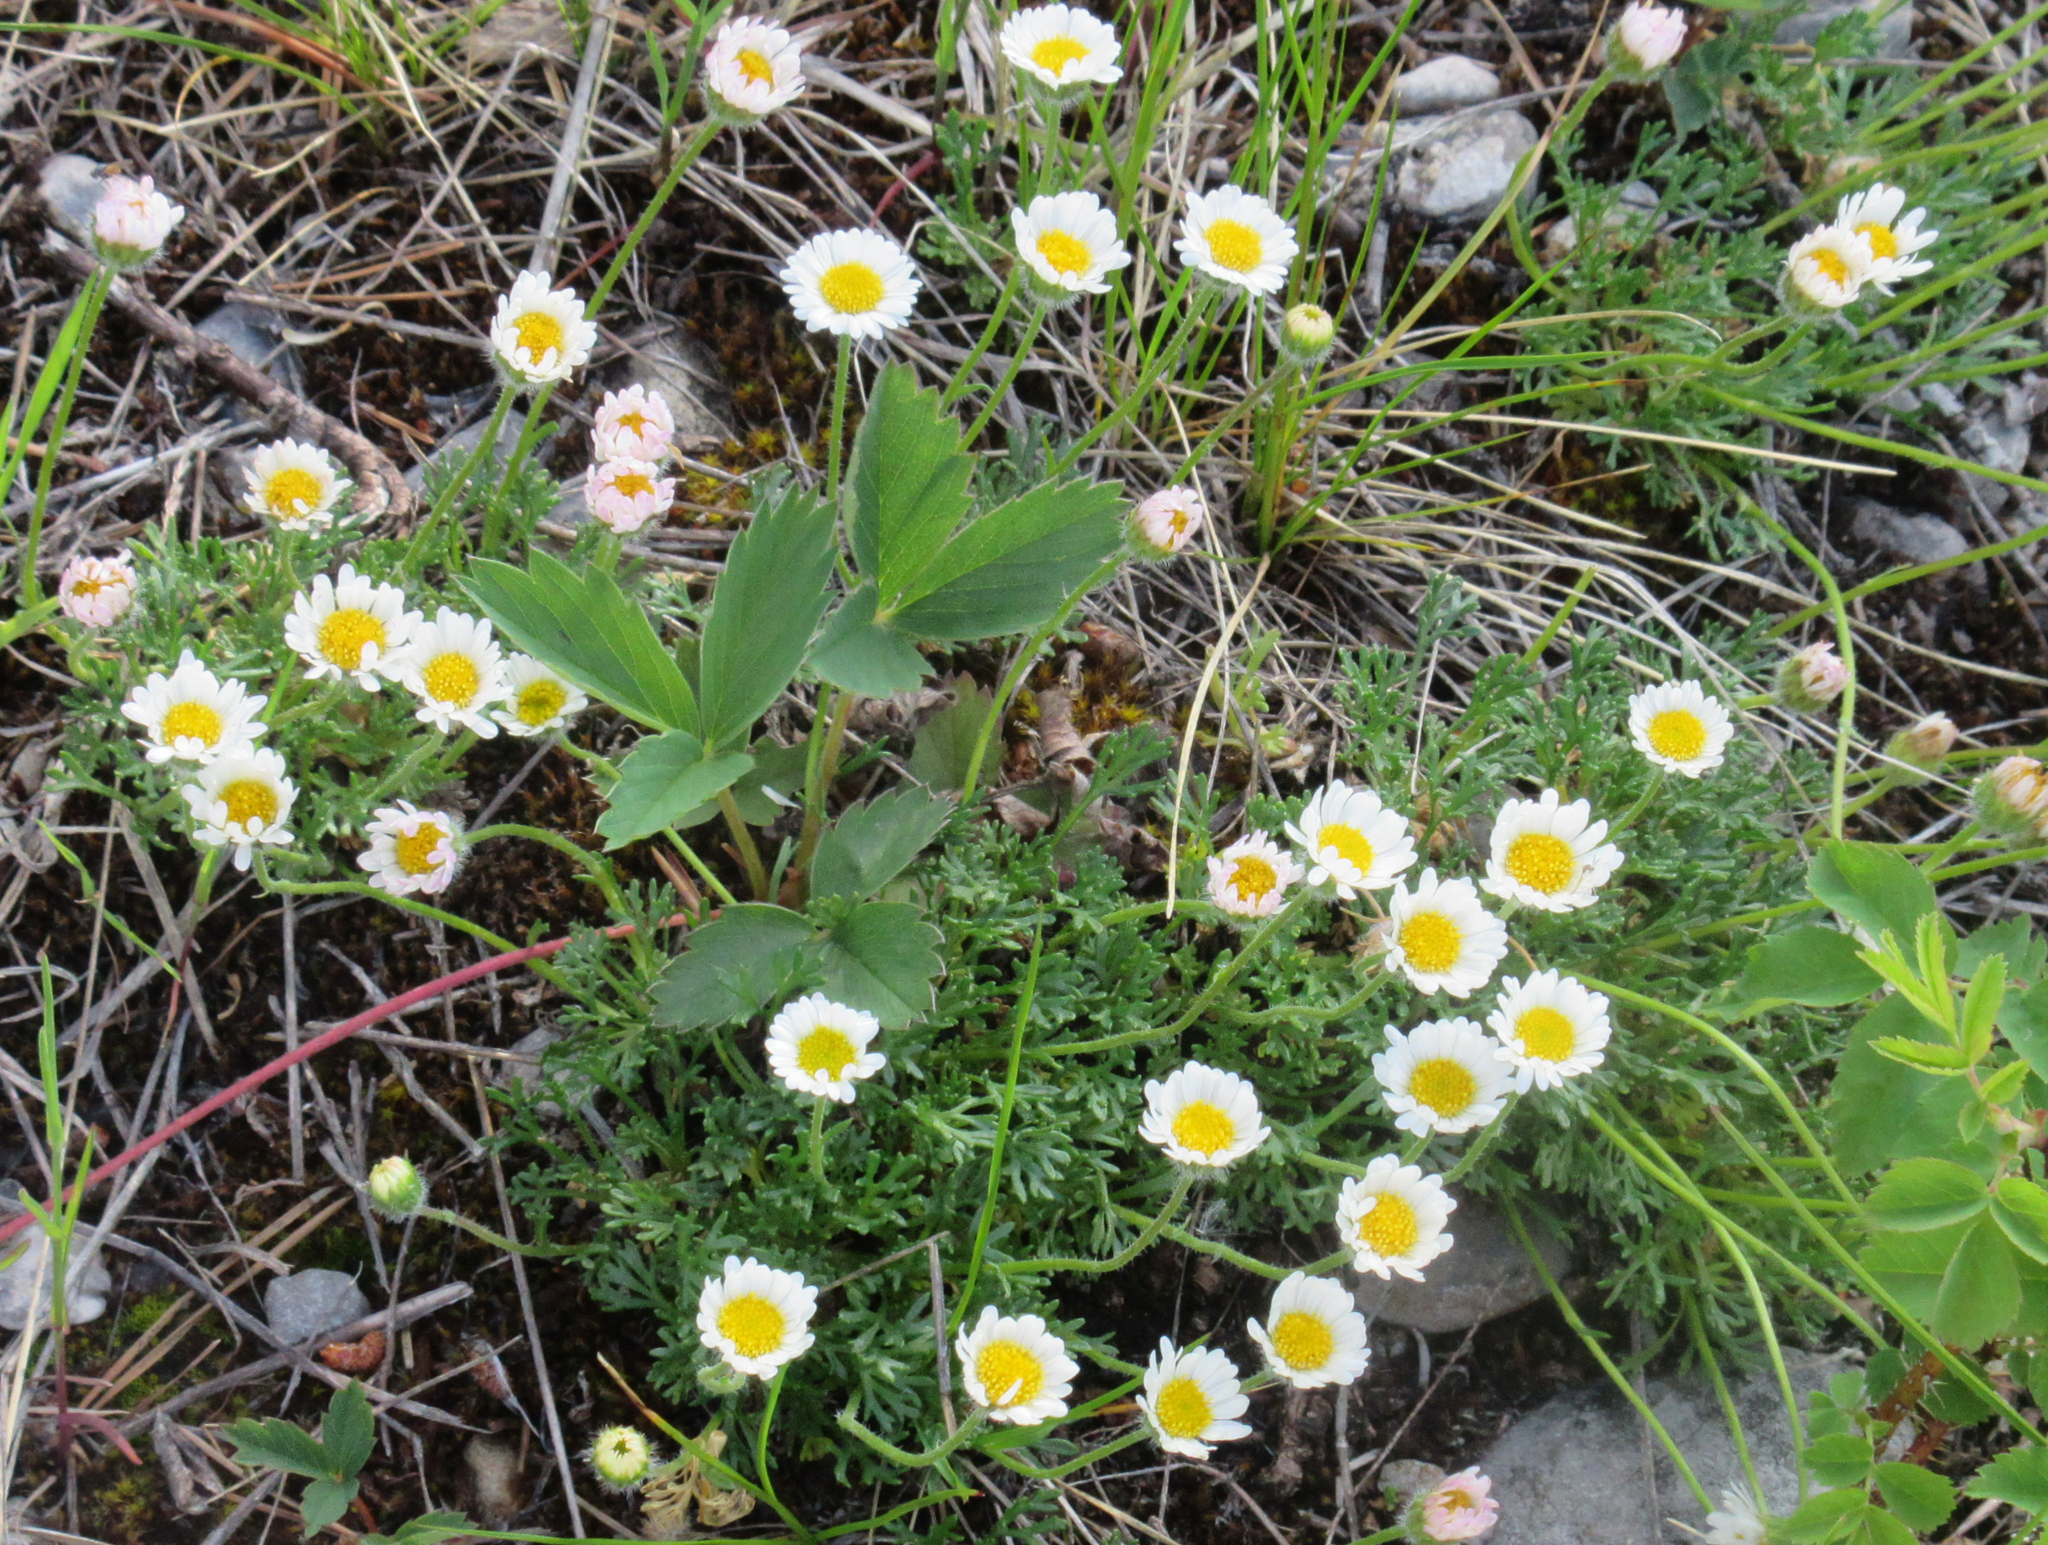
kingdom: Plantae
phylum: Tracheophyta
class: Magnoliopsida
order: Asterales
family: Asteraceae
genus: Erigeron
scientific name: Erigeron compositus
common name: Dwarf mountain fleabane
